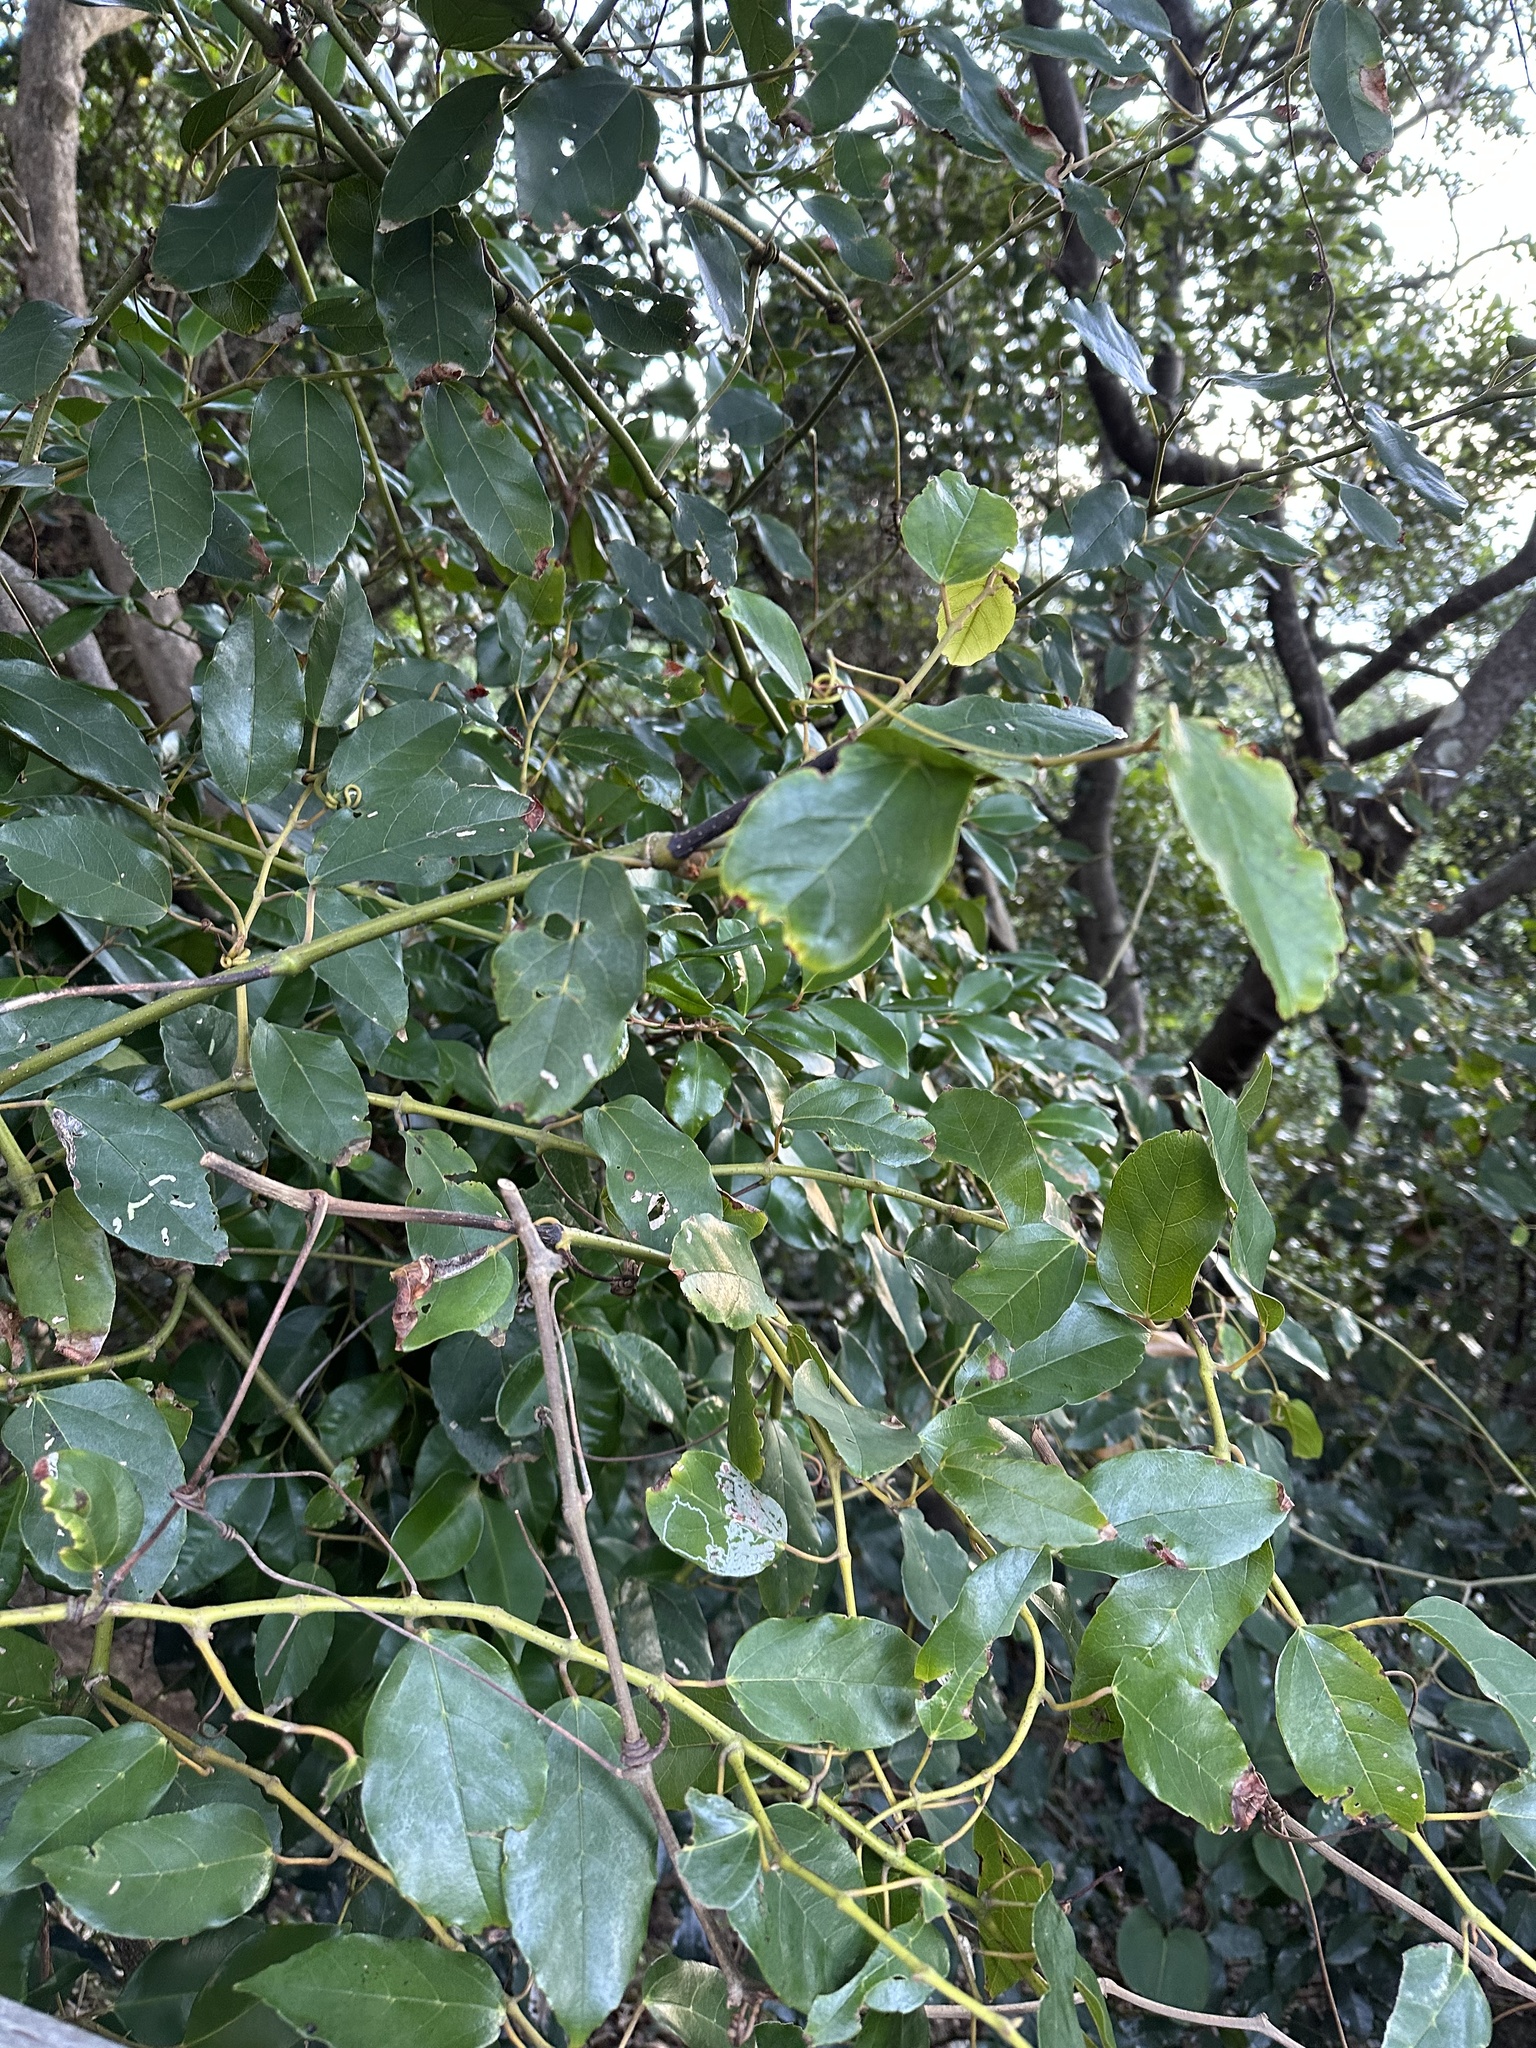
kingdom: Plantae
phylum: Tracheophyta
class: Magnoliopsida
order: Vitales
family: Vitaceae
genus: Cissus
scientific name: Cissus antarctica
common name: Kangaroo vine
